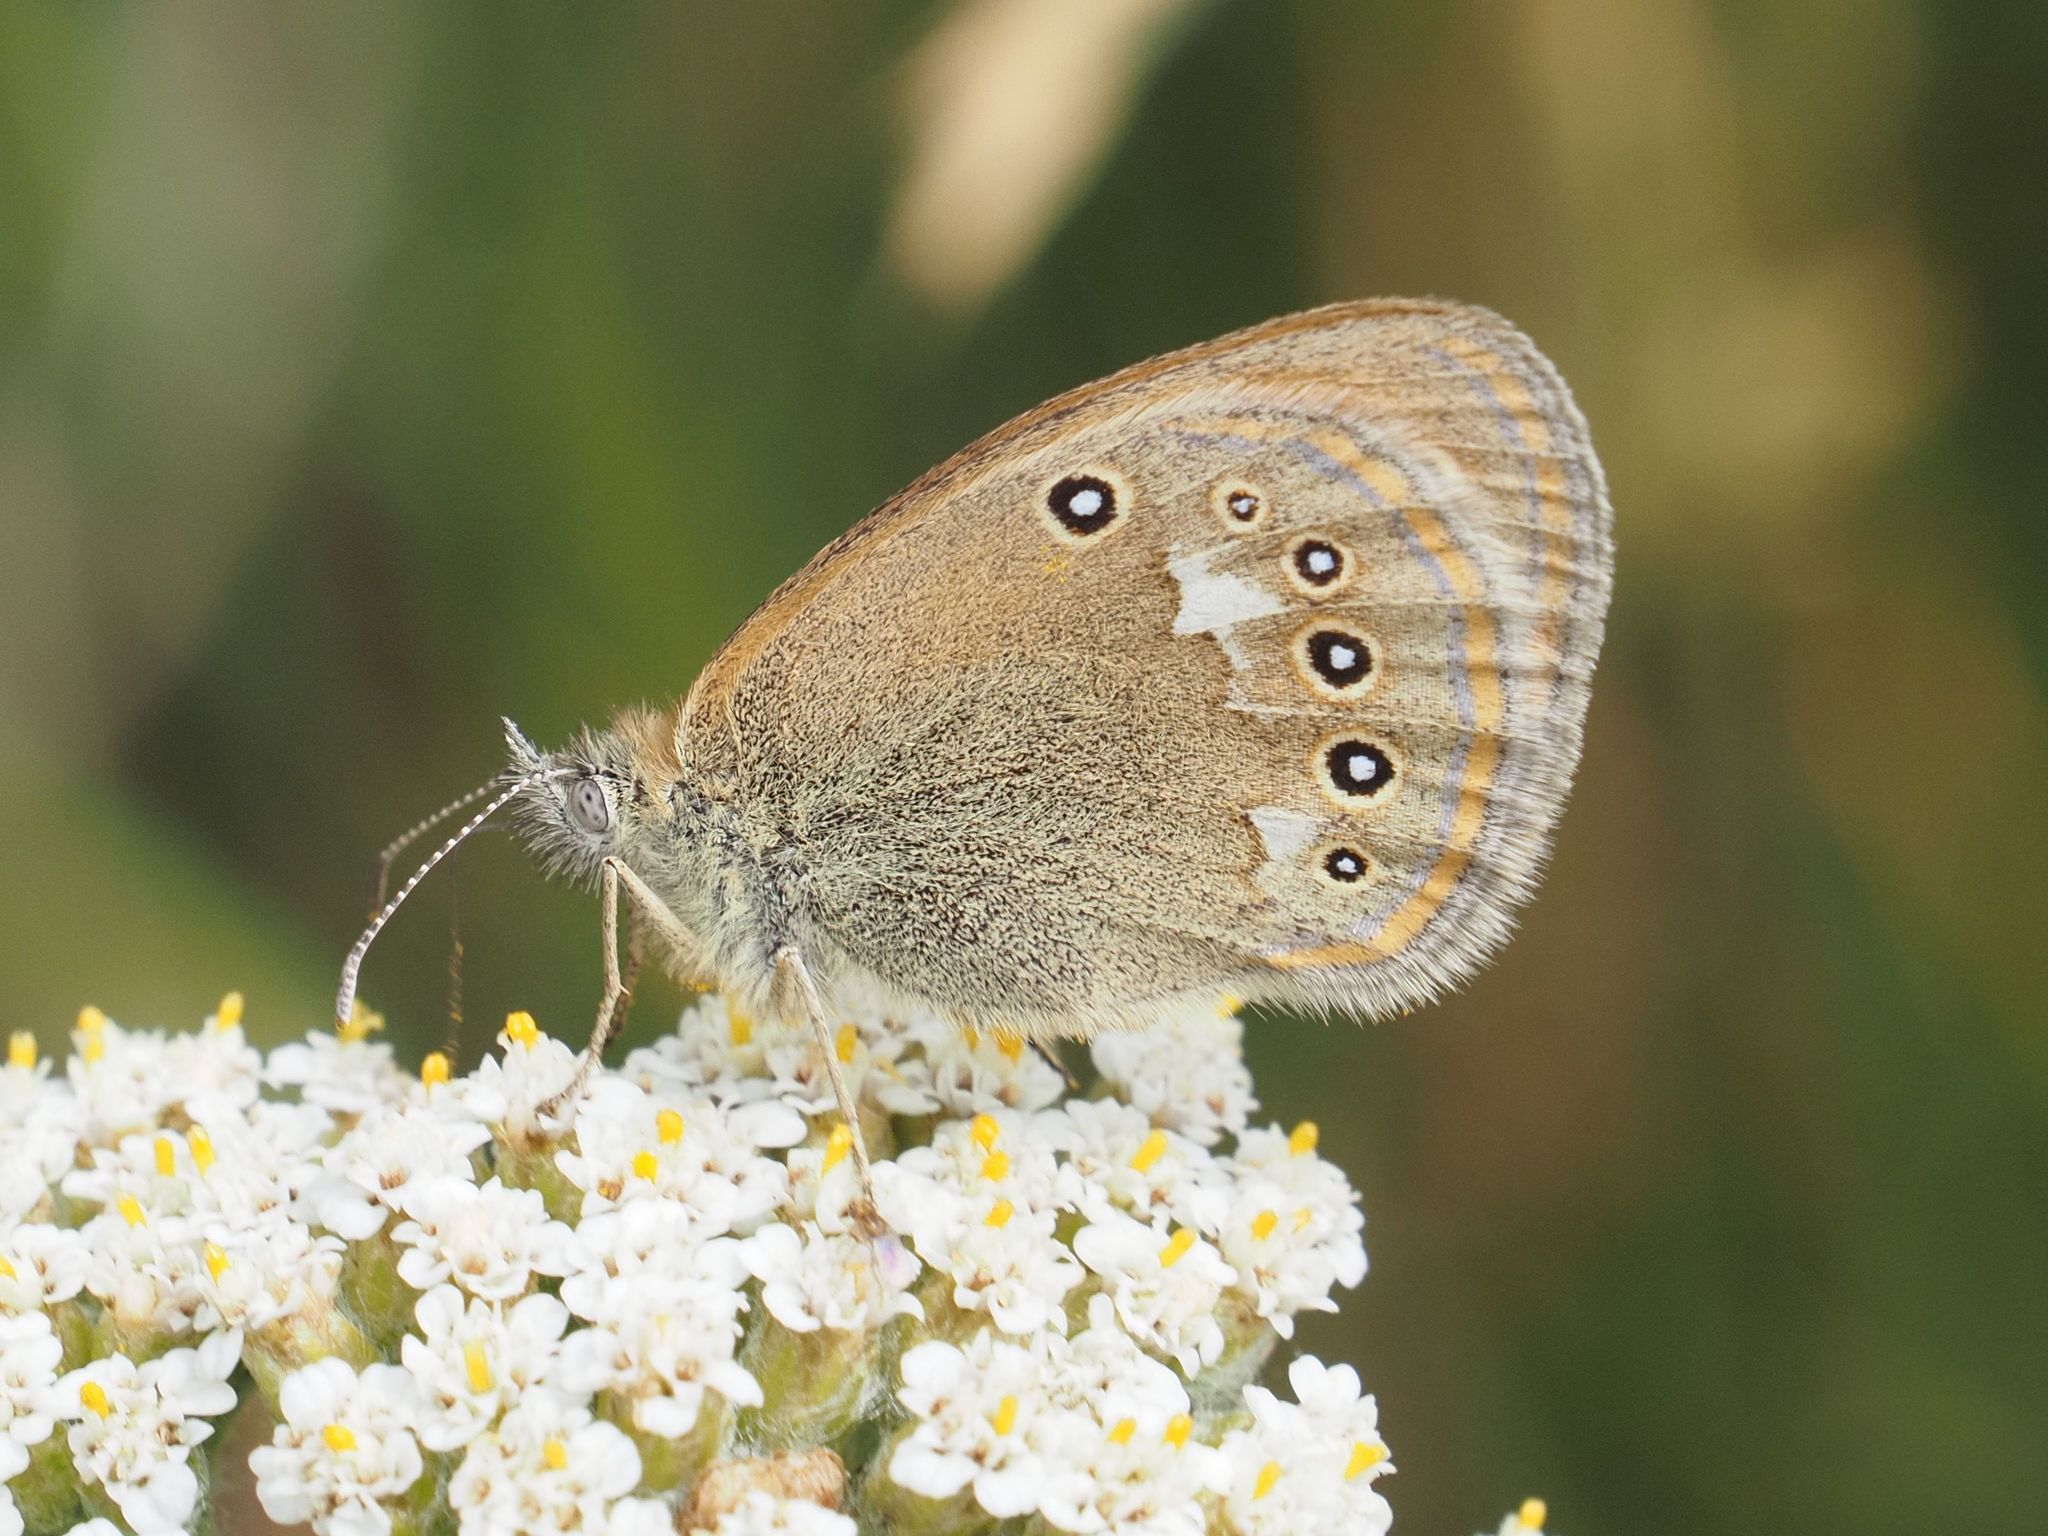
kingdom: Animalia
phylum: Arthropoda
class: Insecta
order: Lepidoptera
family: Nymphalidae
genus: Coenonympha
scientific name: Coenonympha iphis
